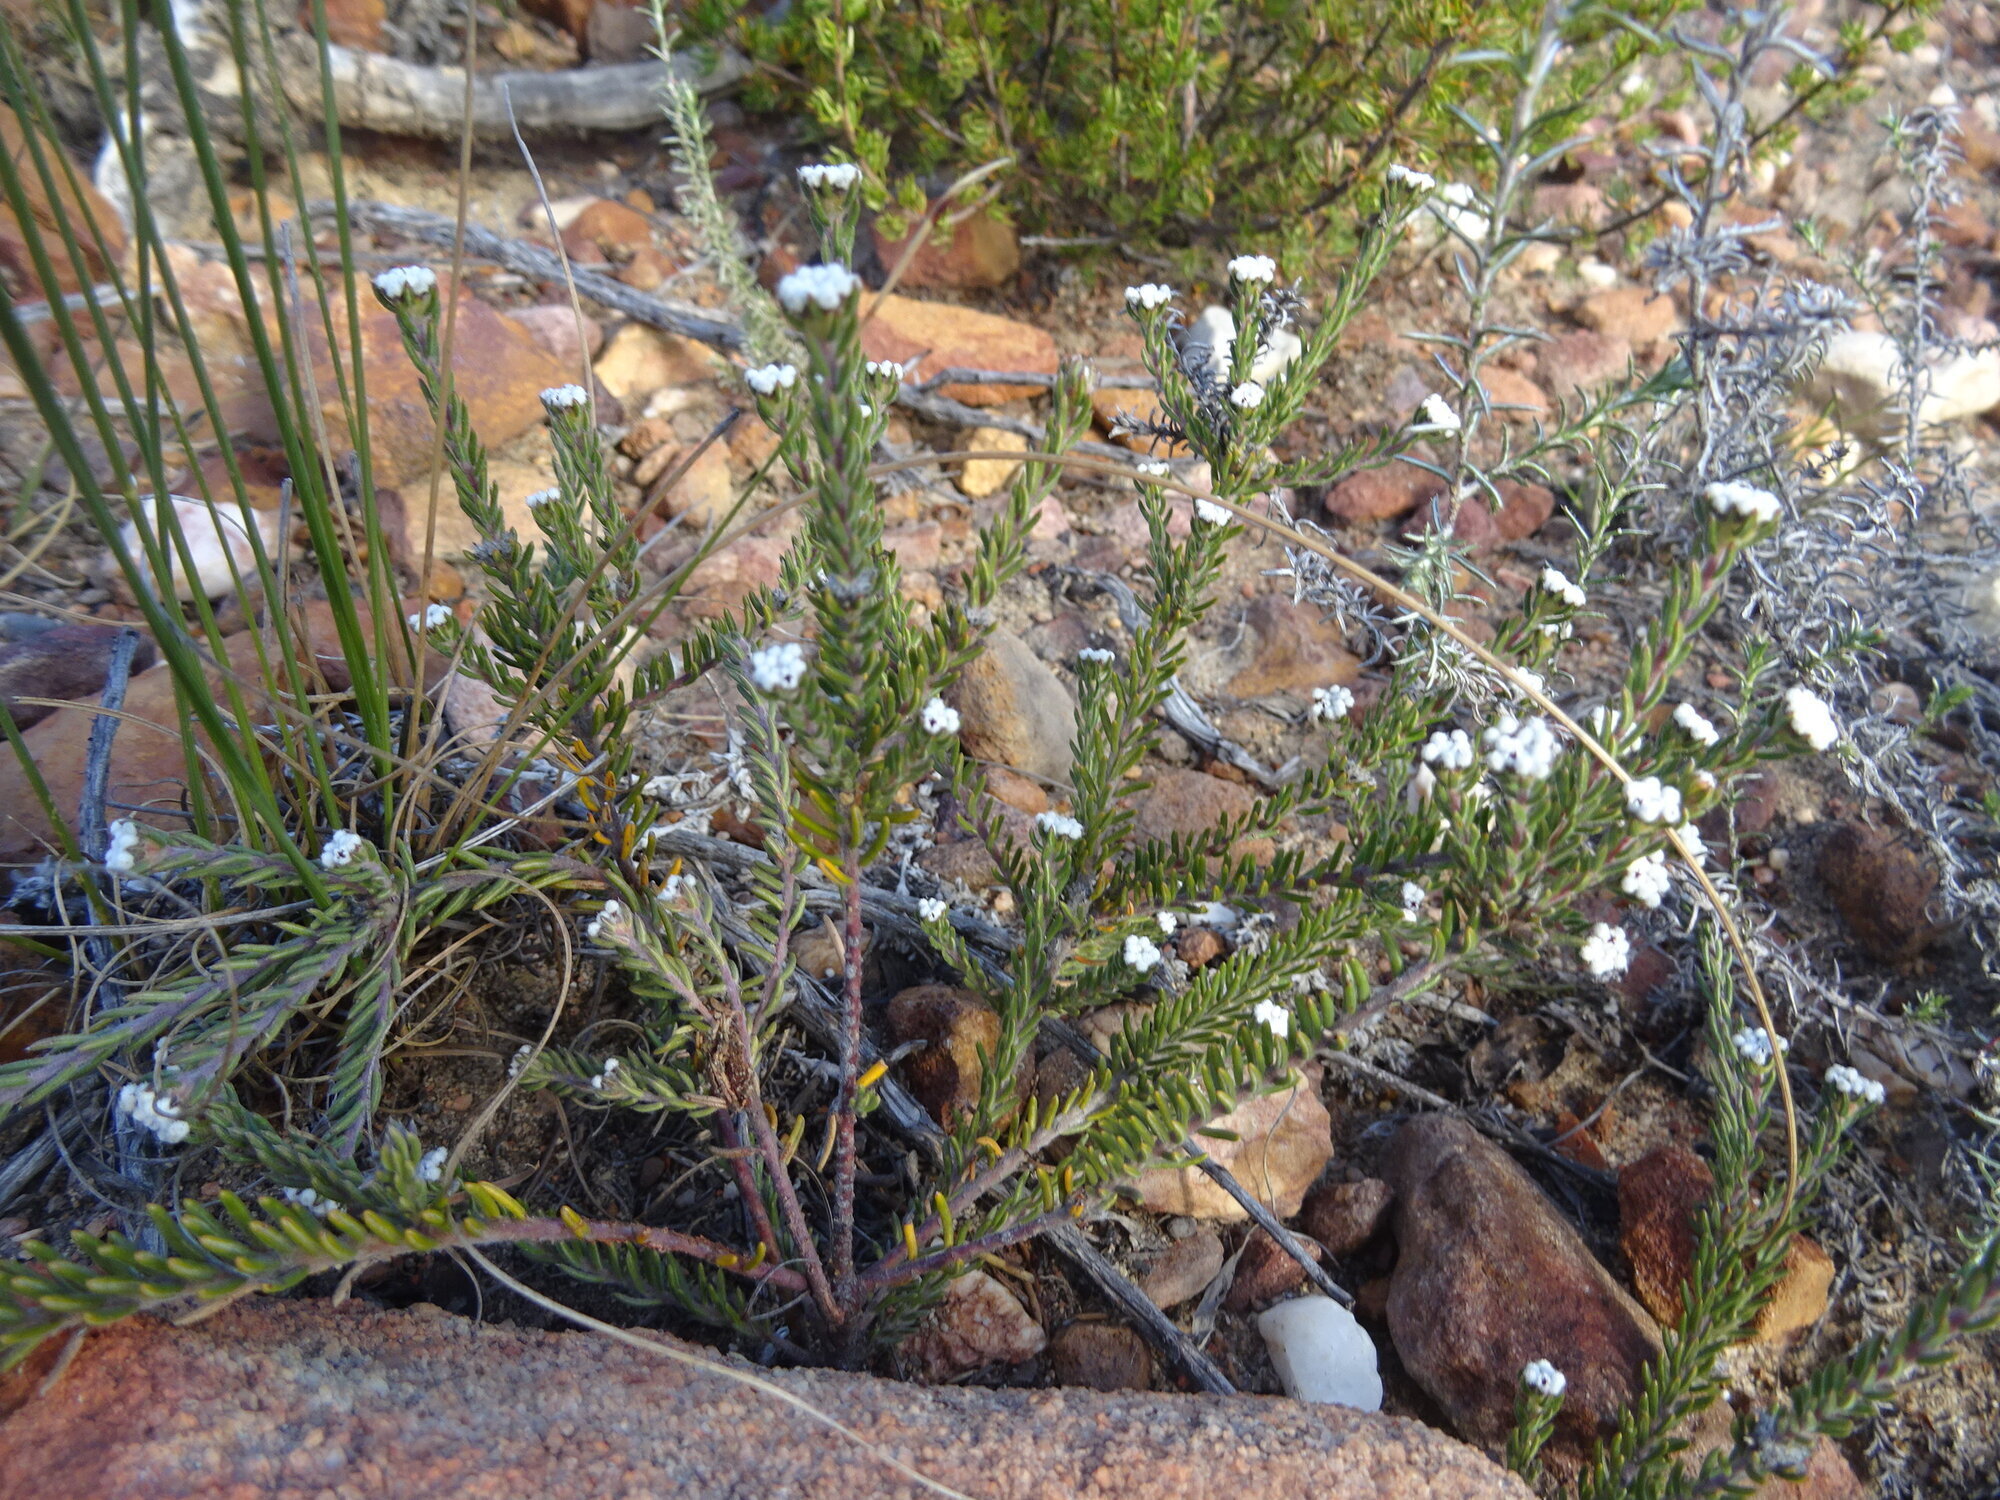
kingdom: Plantae
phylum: Tracheophyta
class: Magnoliopsida
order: Rosales
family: Rhamnaceae
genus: Phylica
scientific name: Phylica alba
